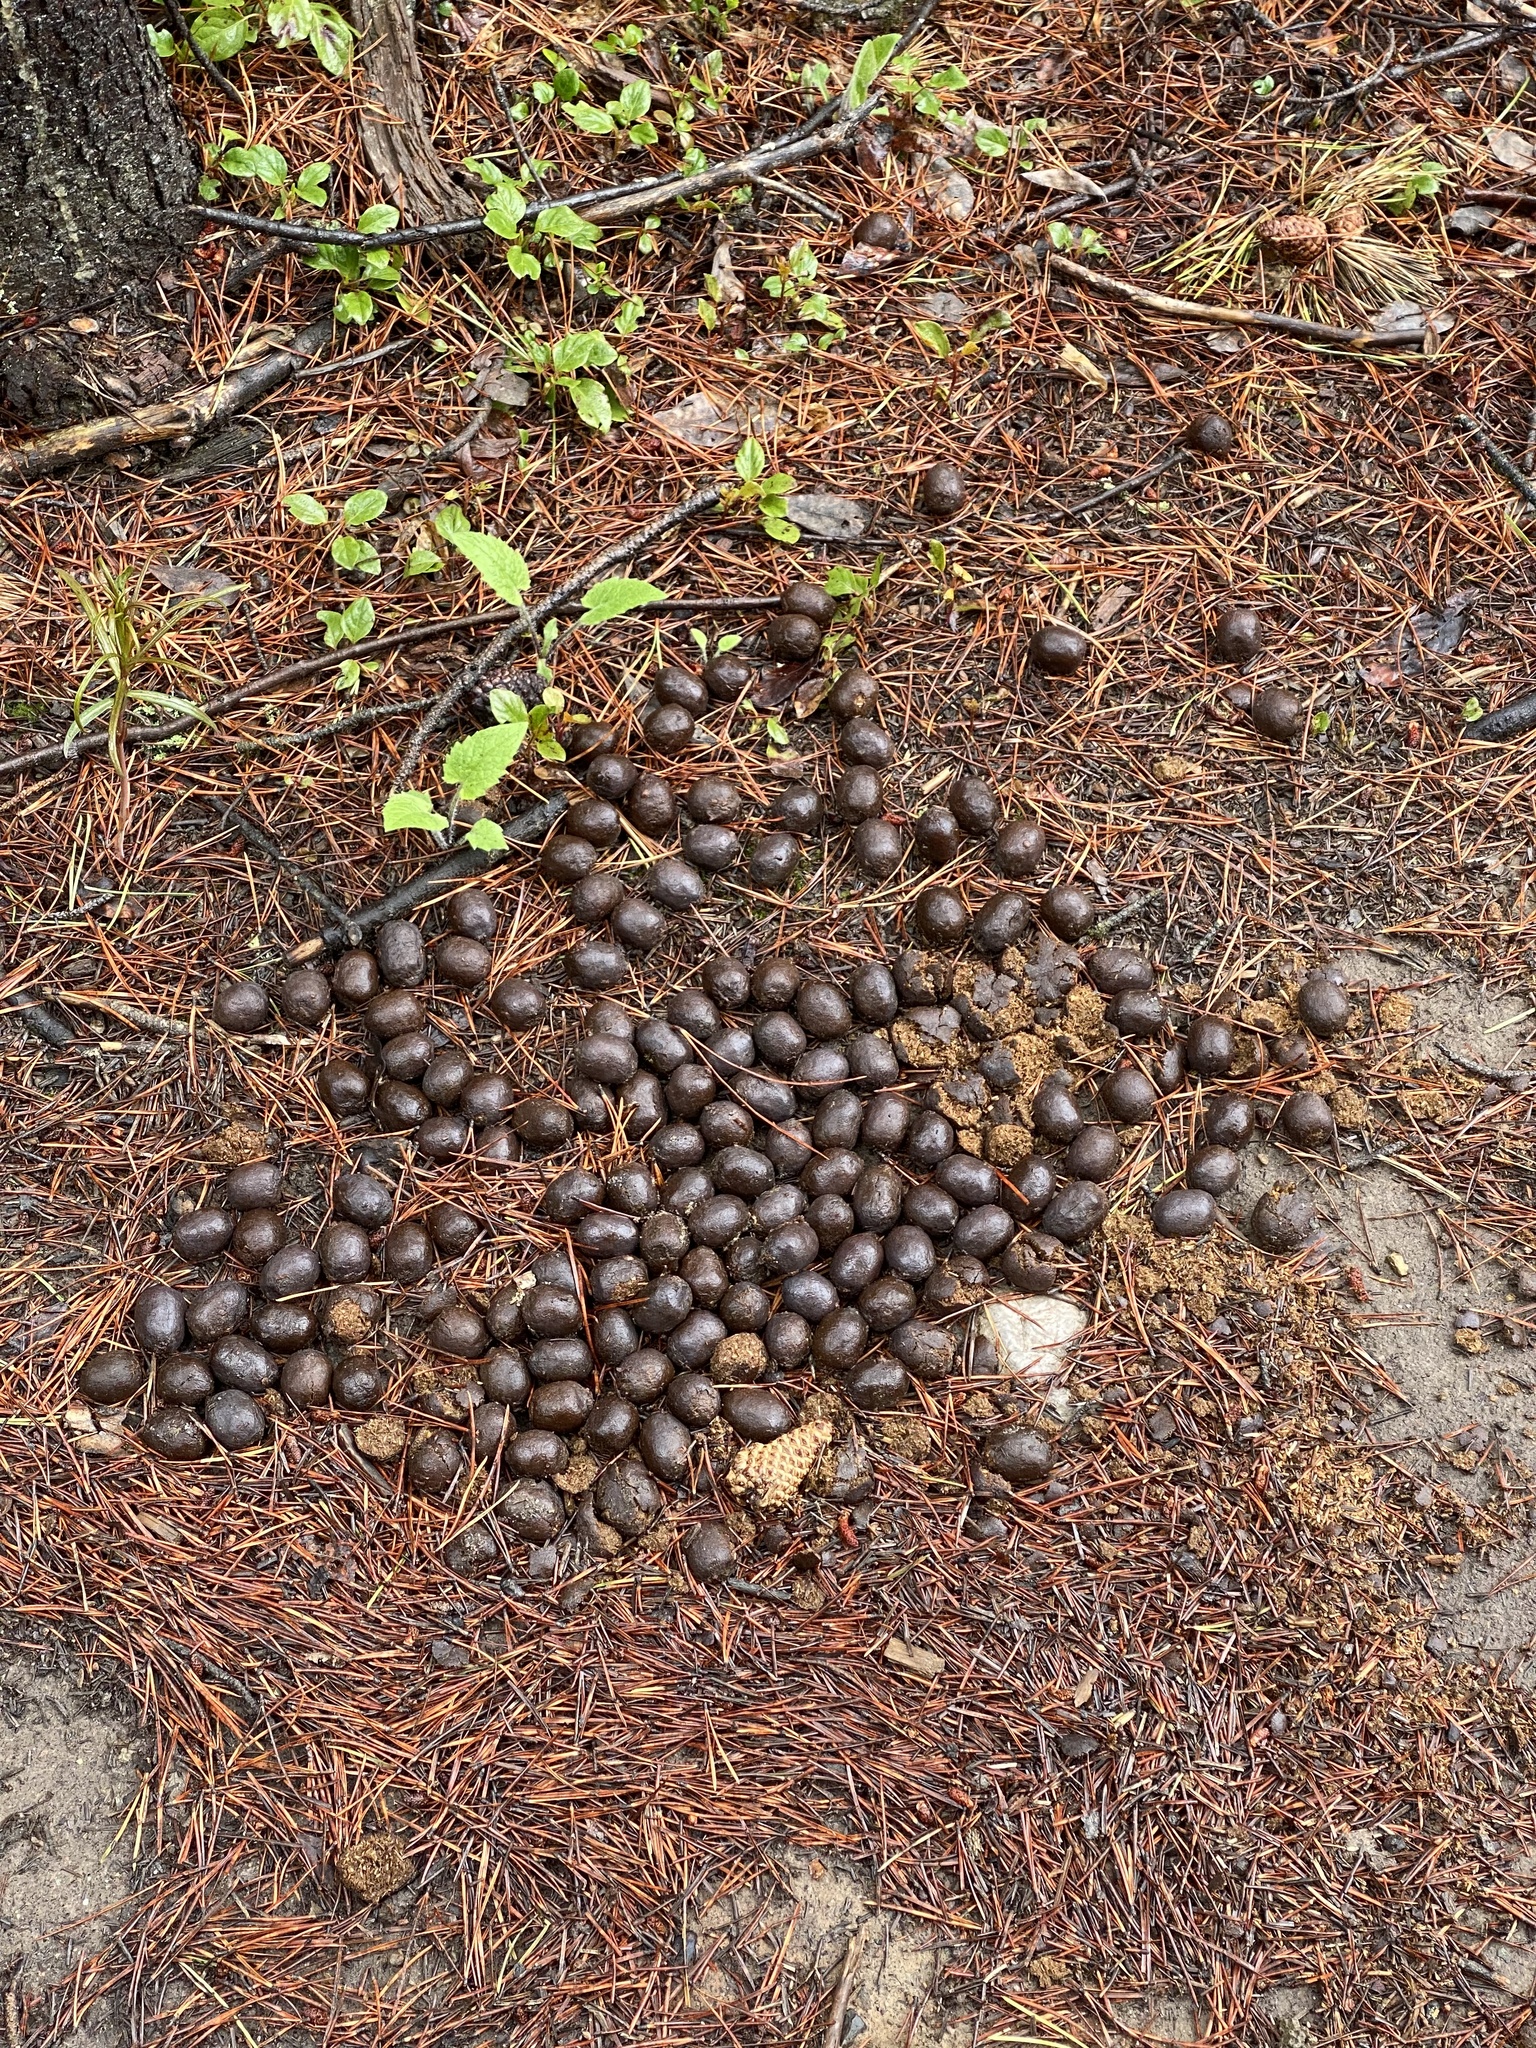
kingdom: Animalia
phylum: Chordata
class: Mammalia
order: Artiodactyla
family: Cervidae
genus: Alces
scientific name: Alces alces
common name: Moose
